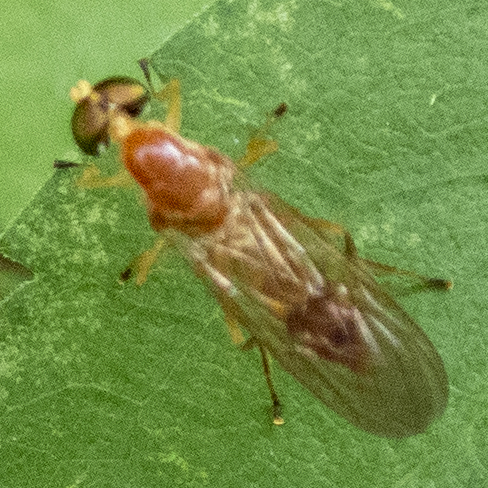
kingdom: Animalia
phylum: Arthropoda
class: Insecta
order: Diptera
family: Stratiomyidae
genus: Ptecticus
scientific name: Ptecticus trivittatus
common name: Compost fly
